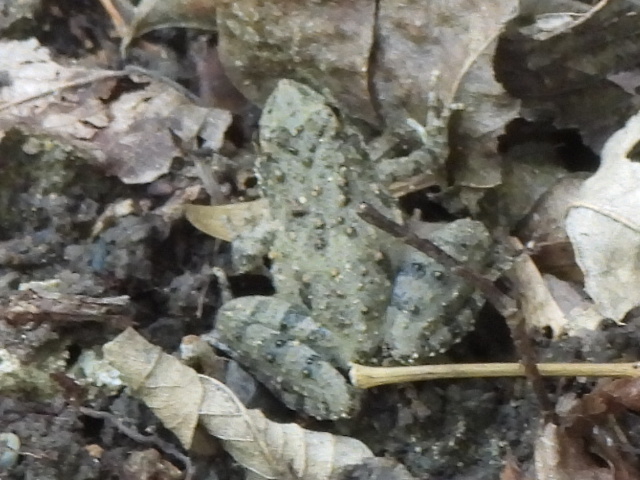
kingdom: Animalia
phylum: Chordata
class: Amphibia
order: Anura
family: Hylidae
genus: Acris
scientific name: Acris blanchardi
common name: Blanchard's cricket frog
